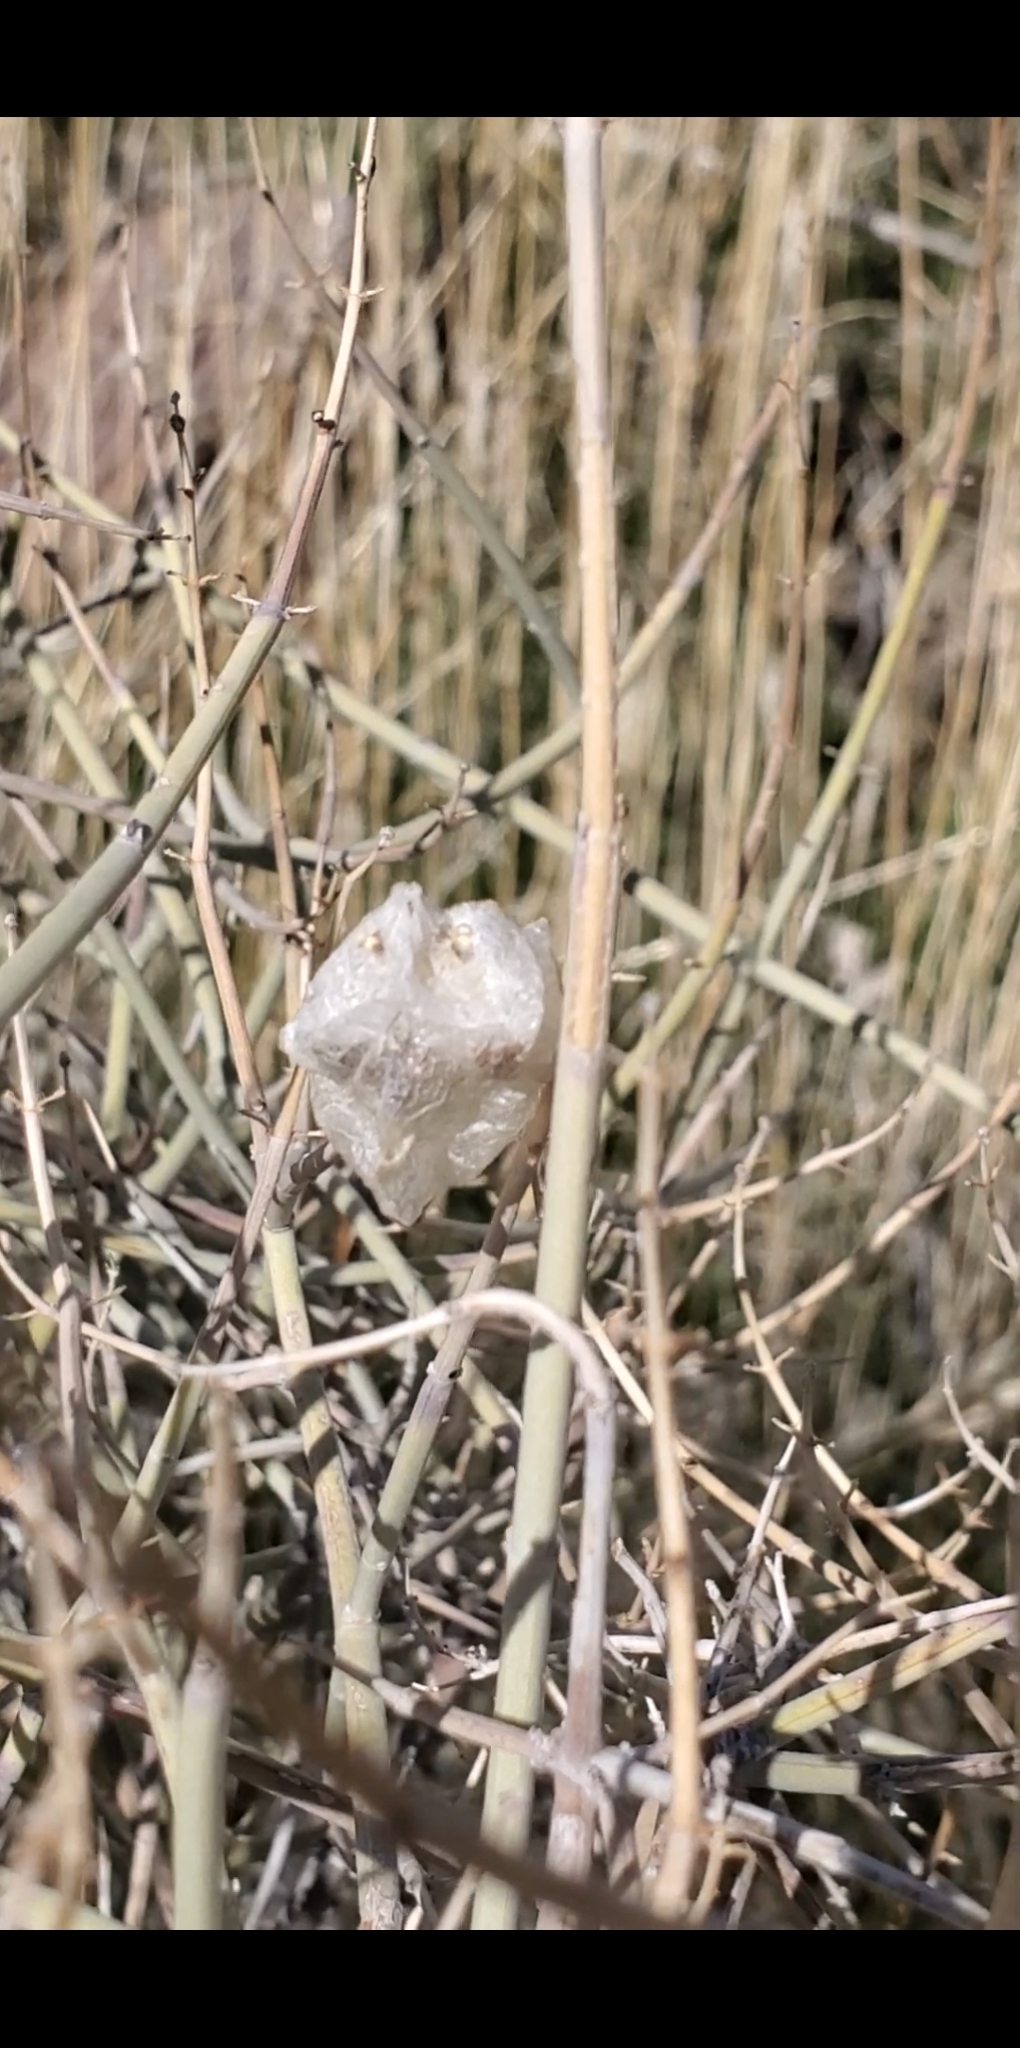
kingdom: Plantae
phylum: Tracheophyta
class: Magnoliopsida
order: Lamiales
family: Lamiaceae
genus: Scutellaria
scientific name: Scutellaria mexicana
